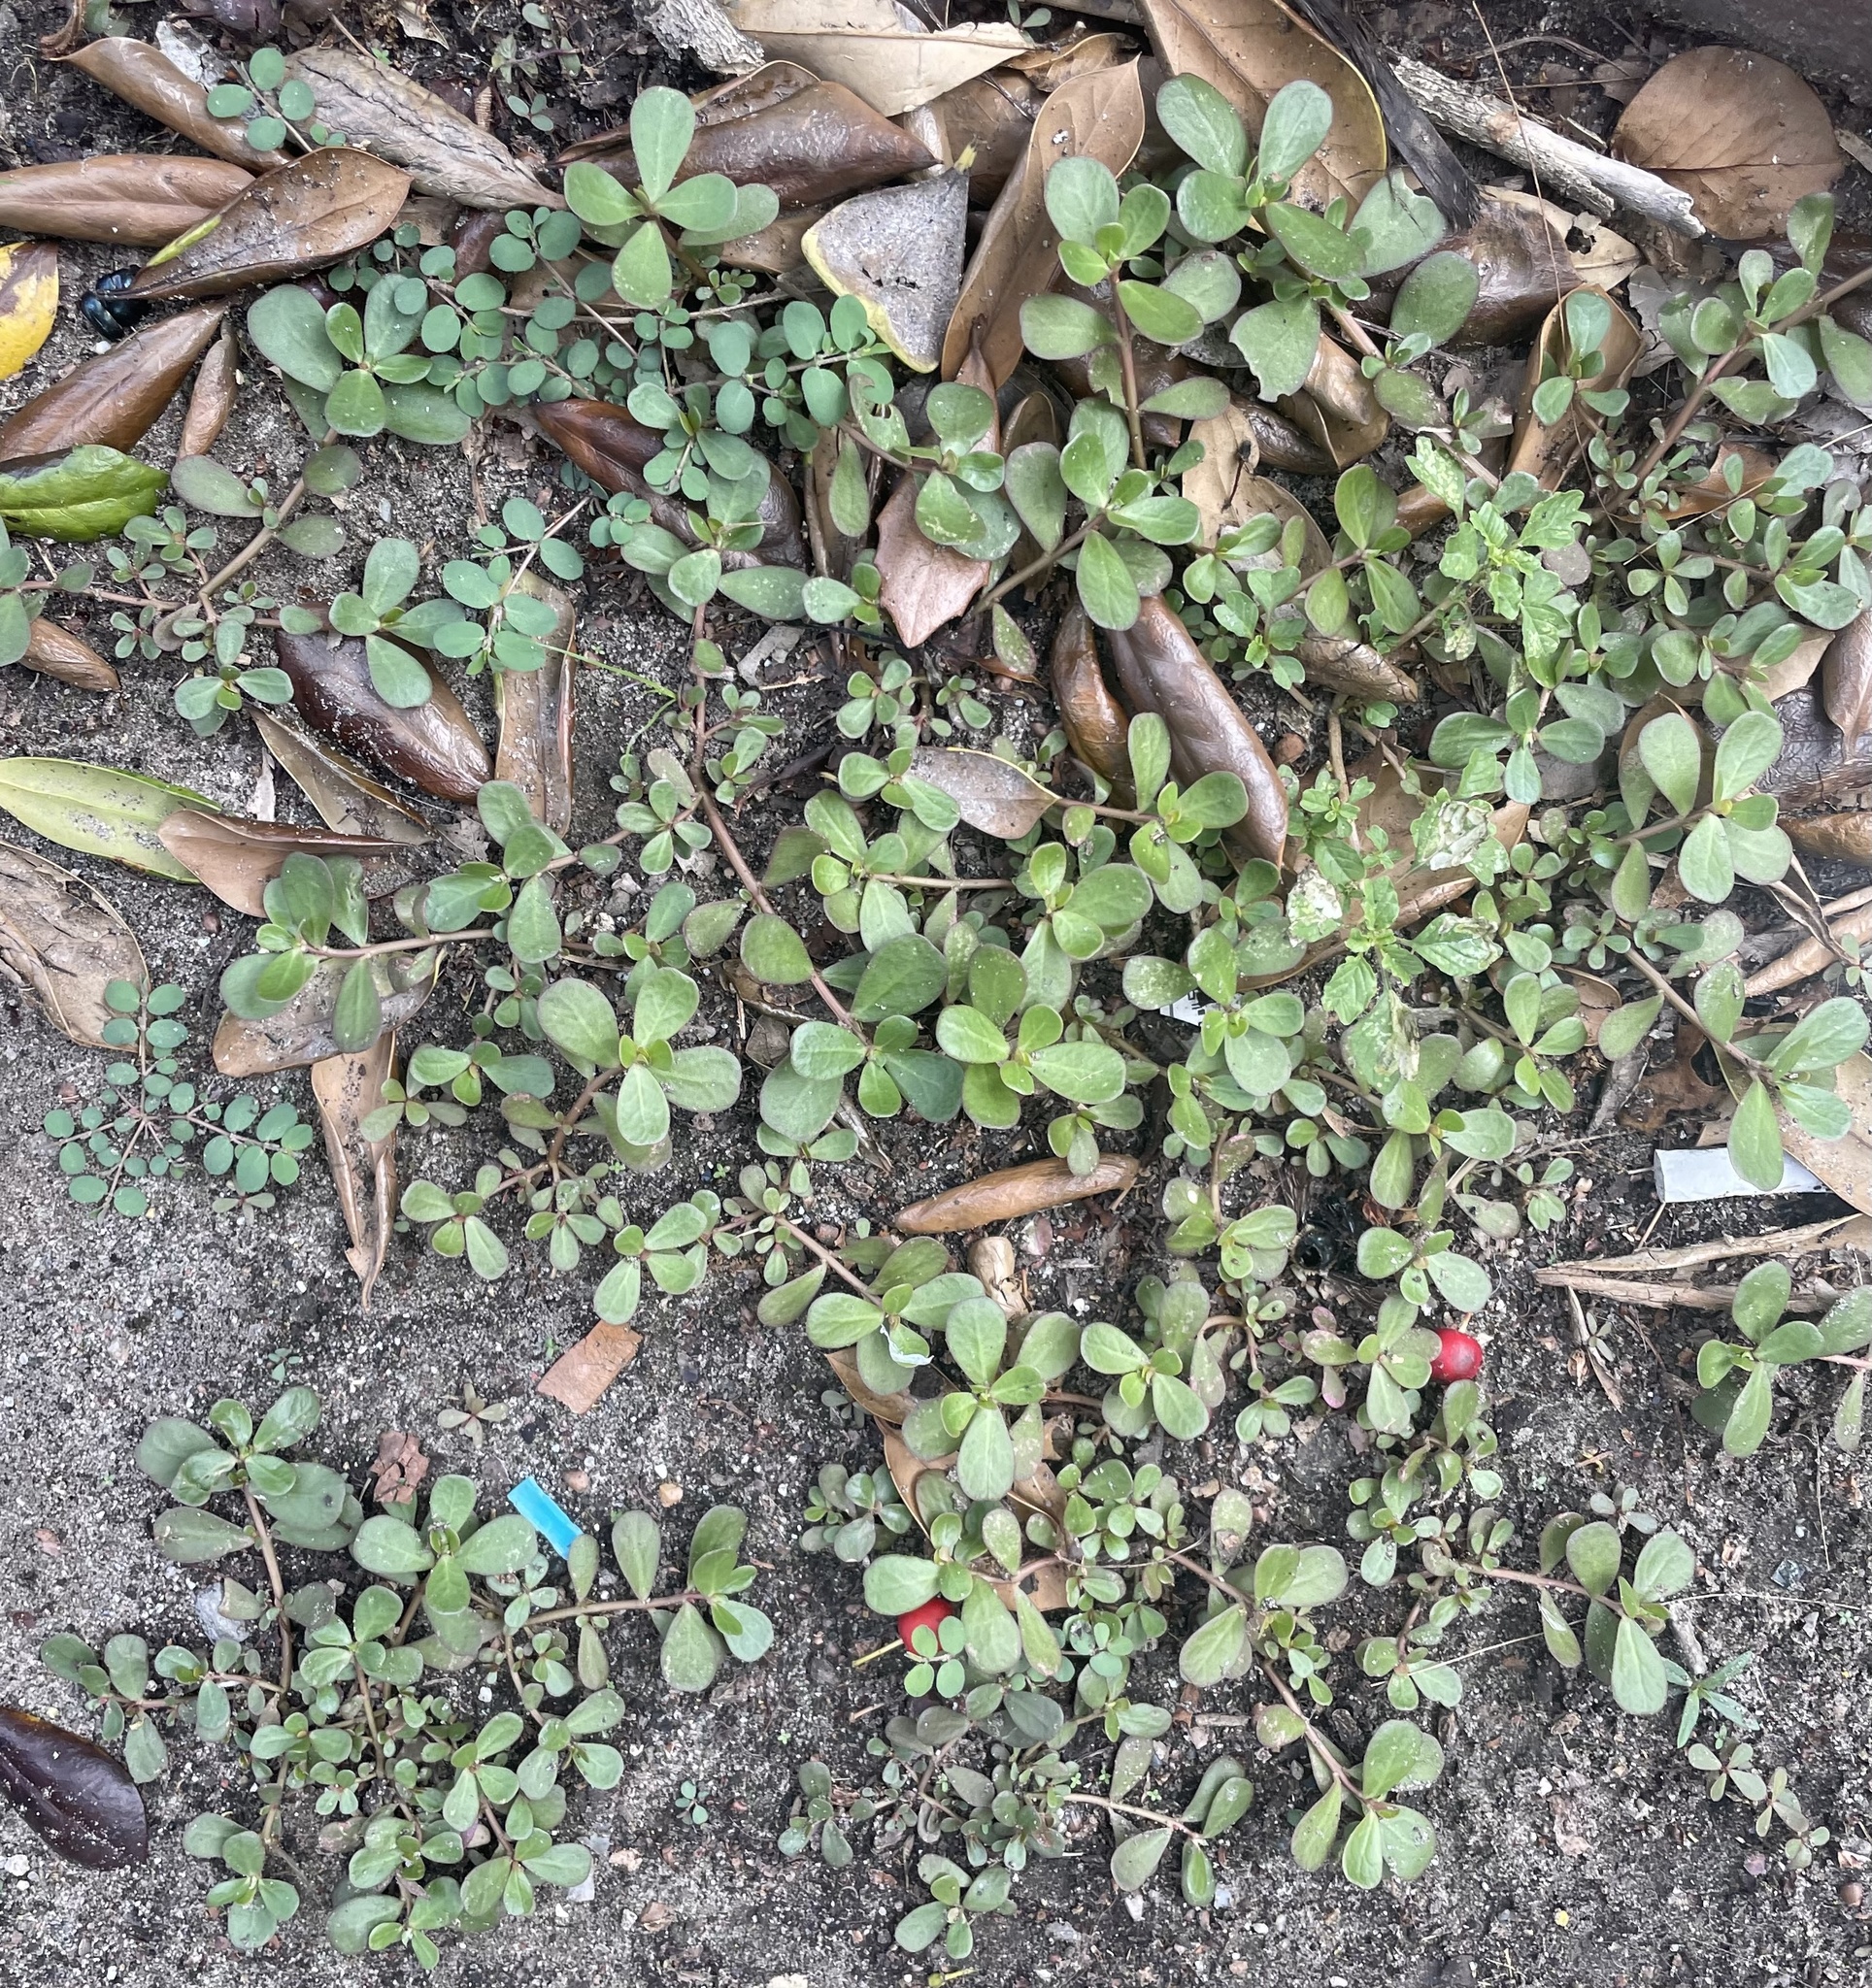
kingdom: Plantae
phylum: Tracheophyta
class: Magnoliopsida
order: Caryophyllales
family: Portulacaceae
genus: Portulaca
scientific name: Portulaca oleracea
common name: Common purslane
